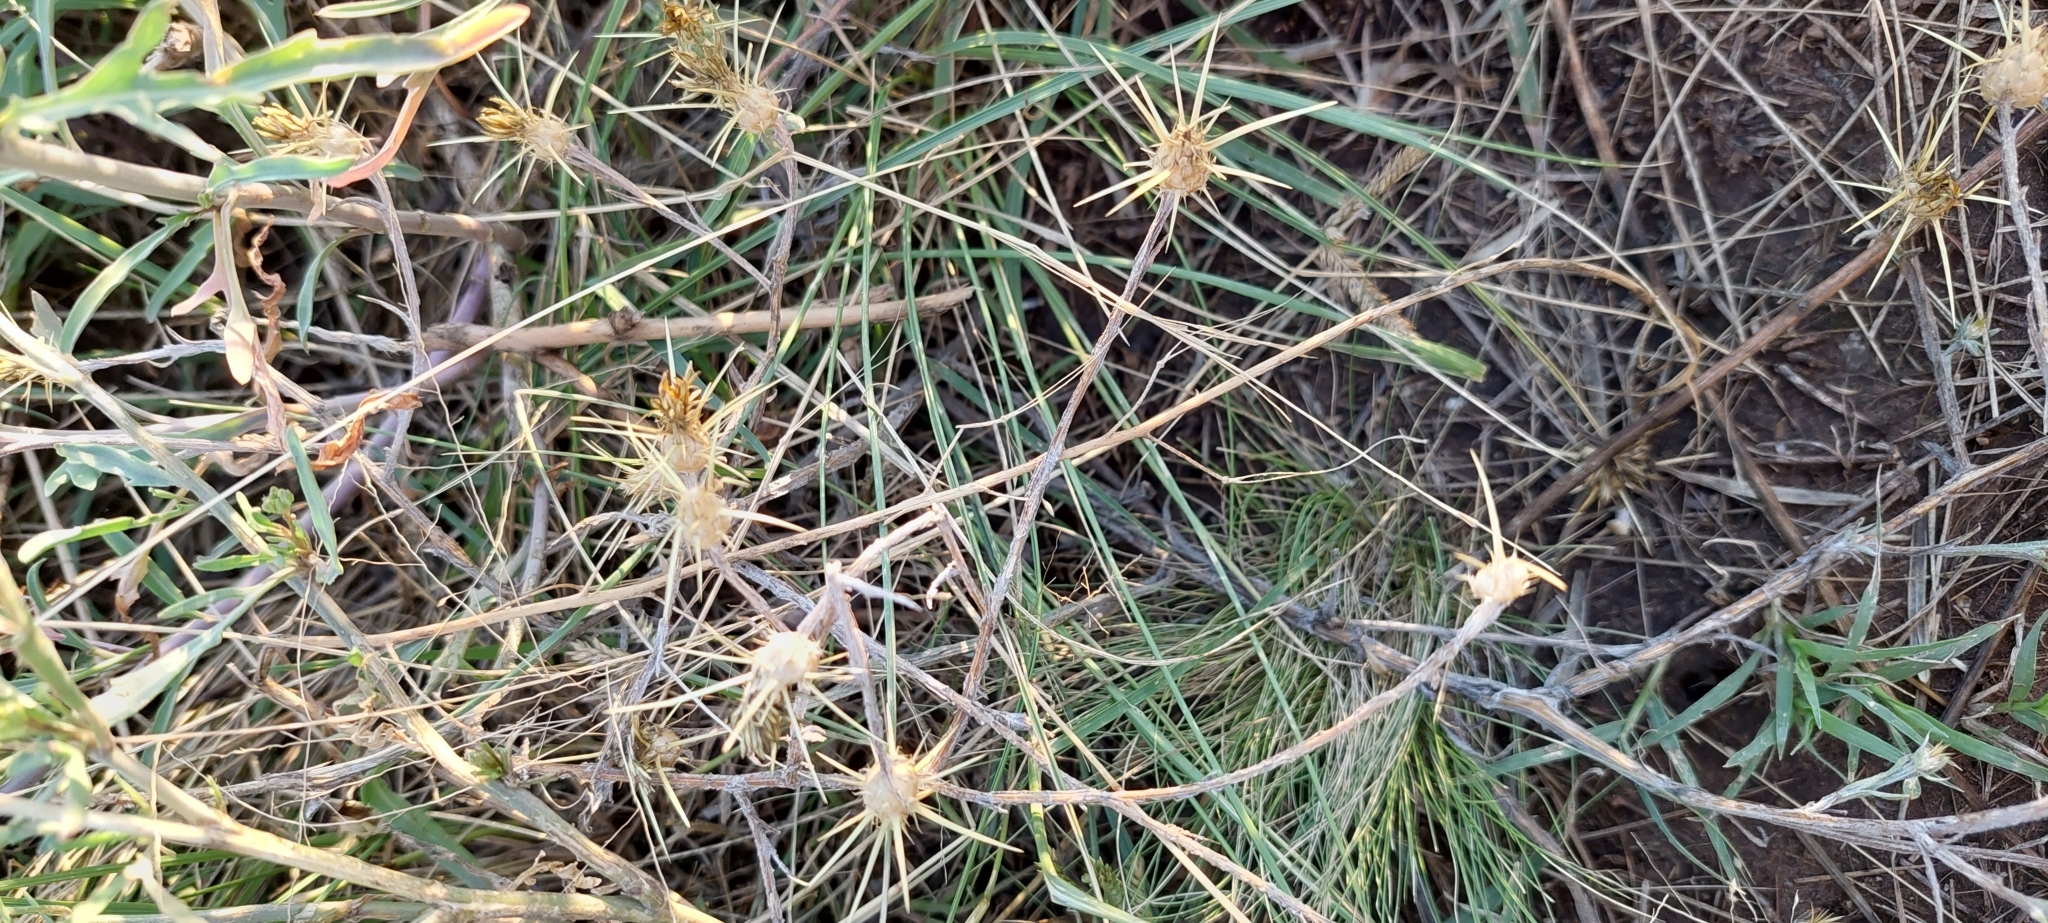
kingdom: Plantae
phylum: Tracheophyta
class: Magnoliopsida
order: Asterales
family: Asteraceae
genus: Centaurea
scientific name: Centaurea solstitialis
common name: Yellow star-thistle
